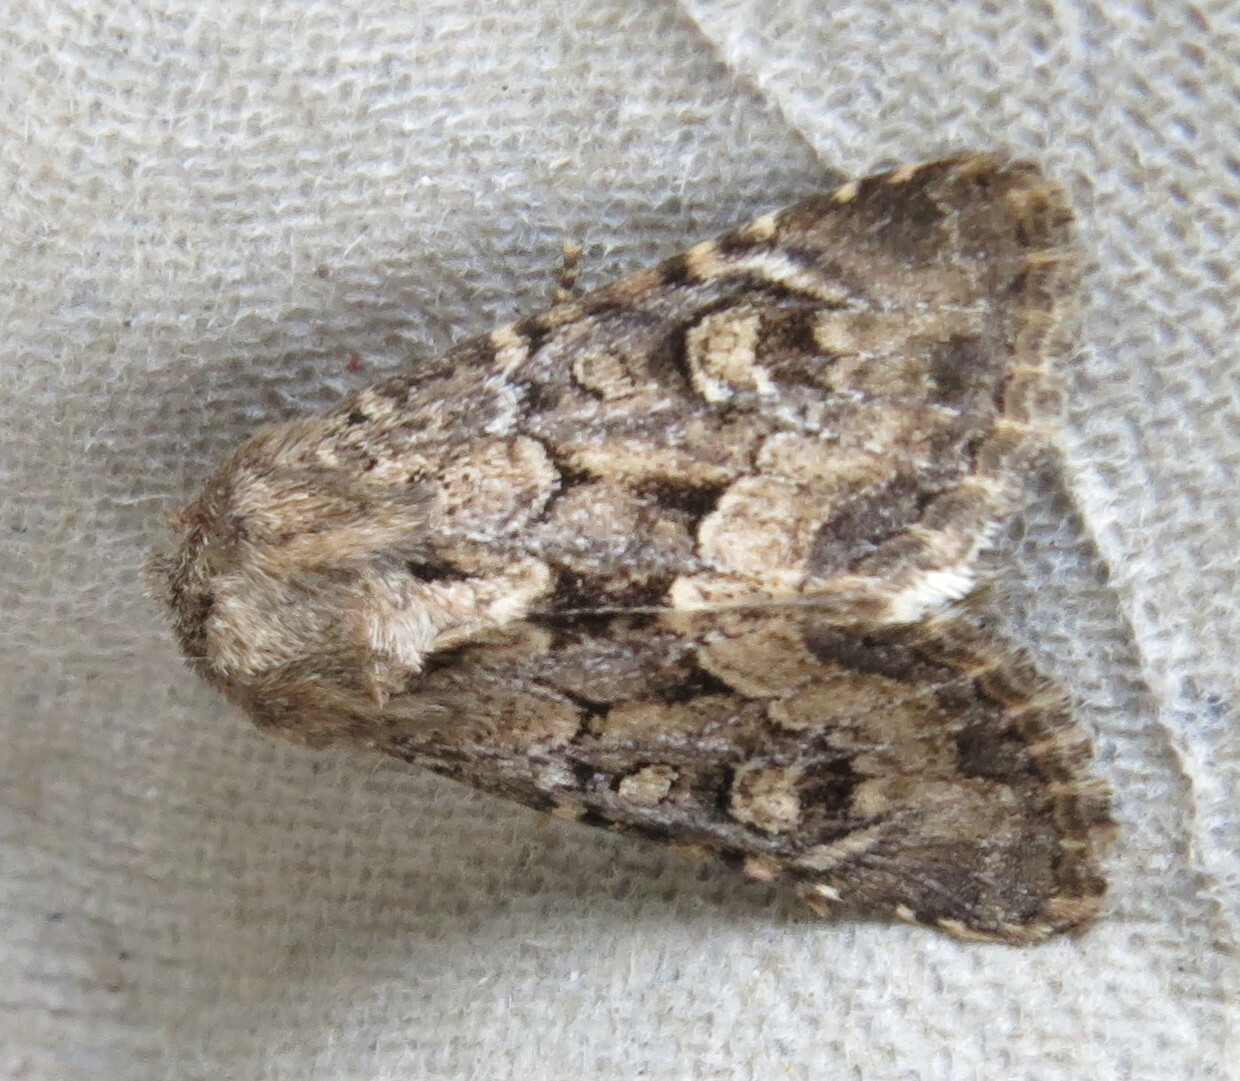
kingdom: Animalia
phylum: Arthropoda
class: Insecta
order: Lepidoptera
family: Noctuidae
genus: Luperina
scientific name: Luperina testacea
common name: Flounced rustic
